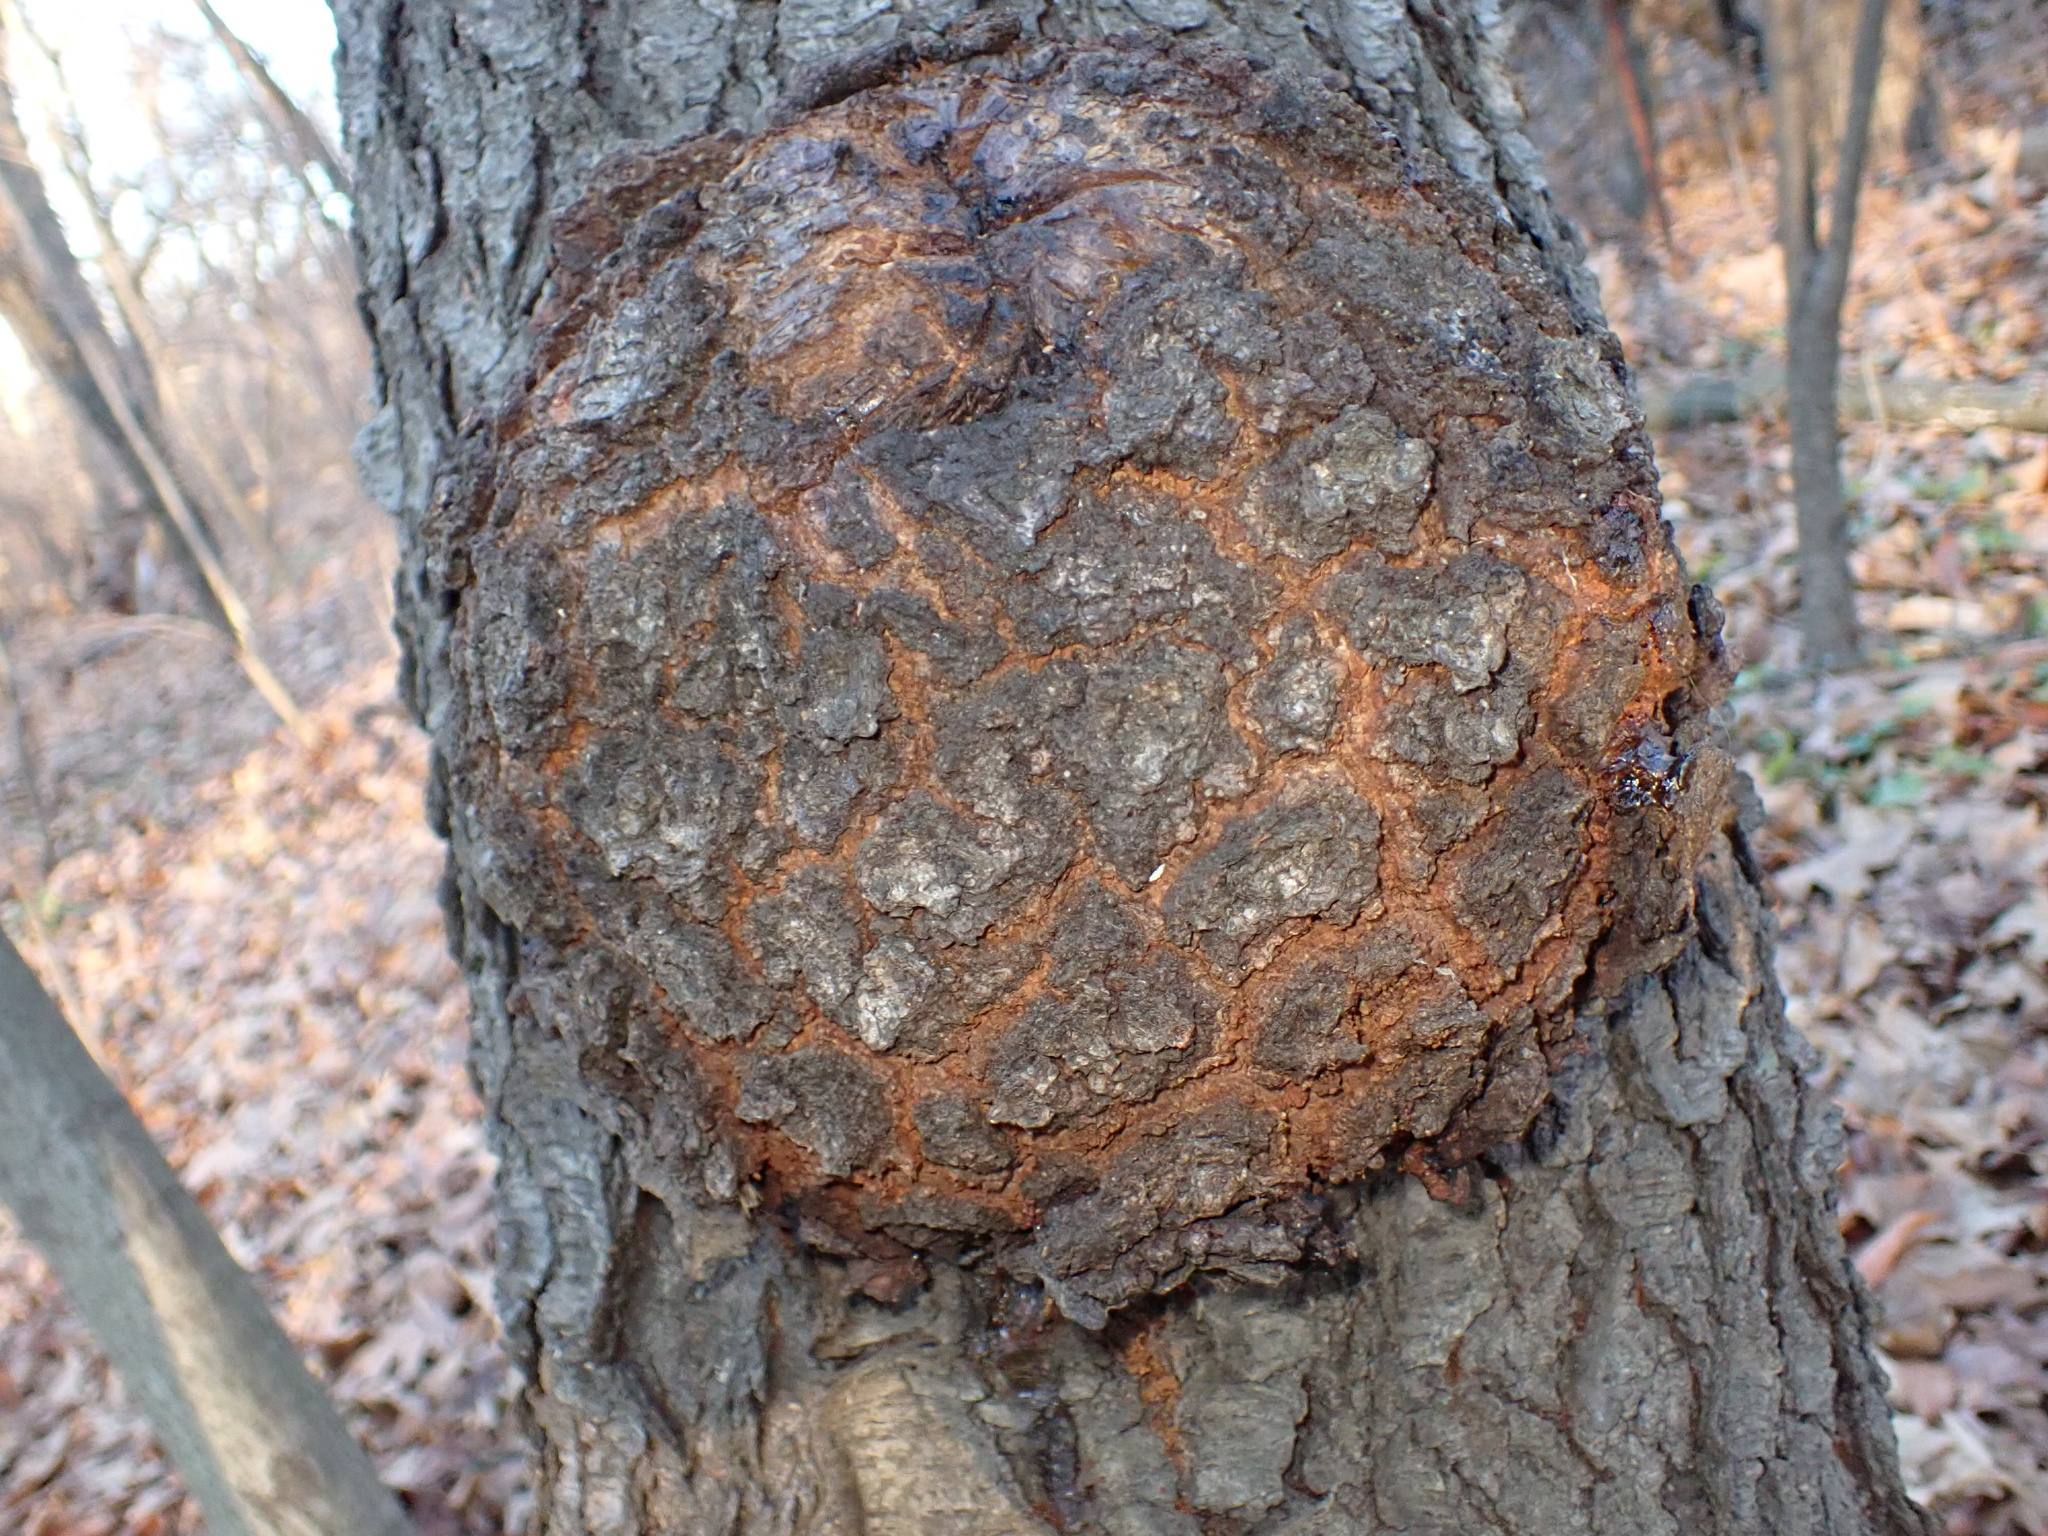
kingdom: Bacteria
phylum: Proteobacteria
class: Alphaproteobacteria
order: Rhizobiales
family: Rhizobiaceae
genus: Rhizobium
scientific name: Rhizobium Agrobacterium radiobacter
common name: Bacterial crown gall
